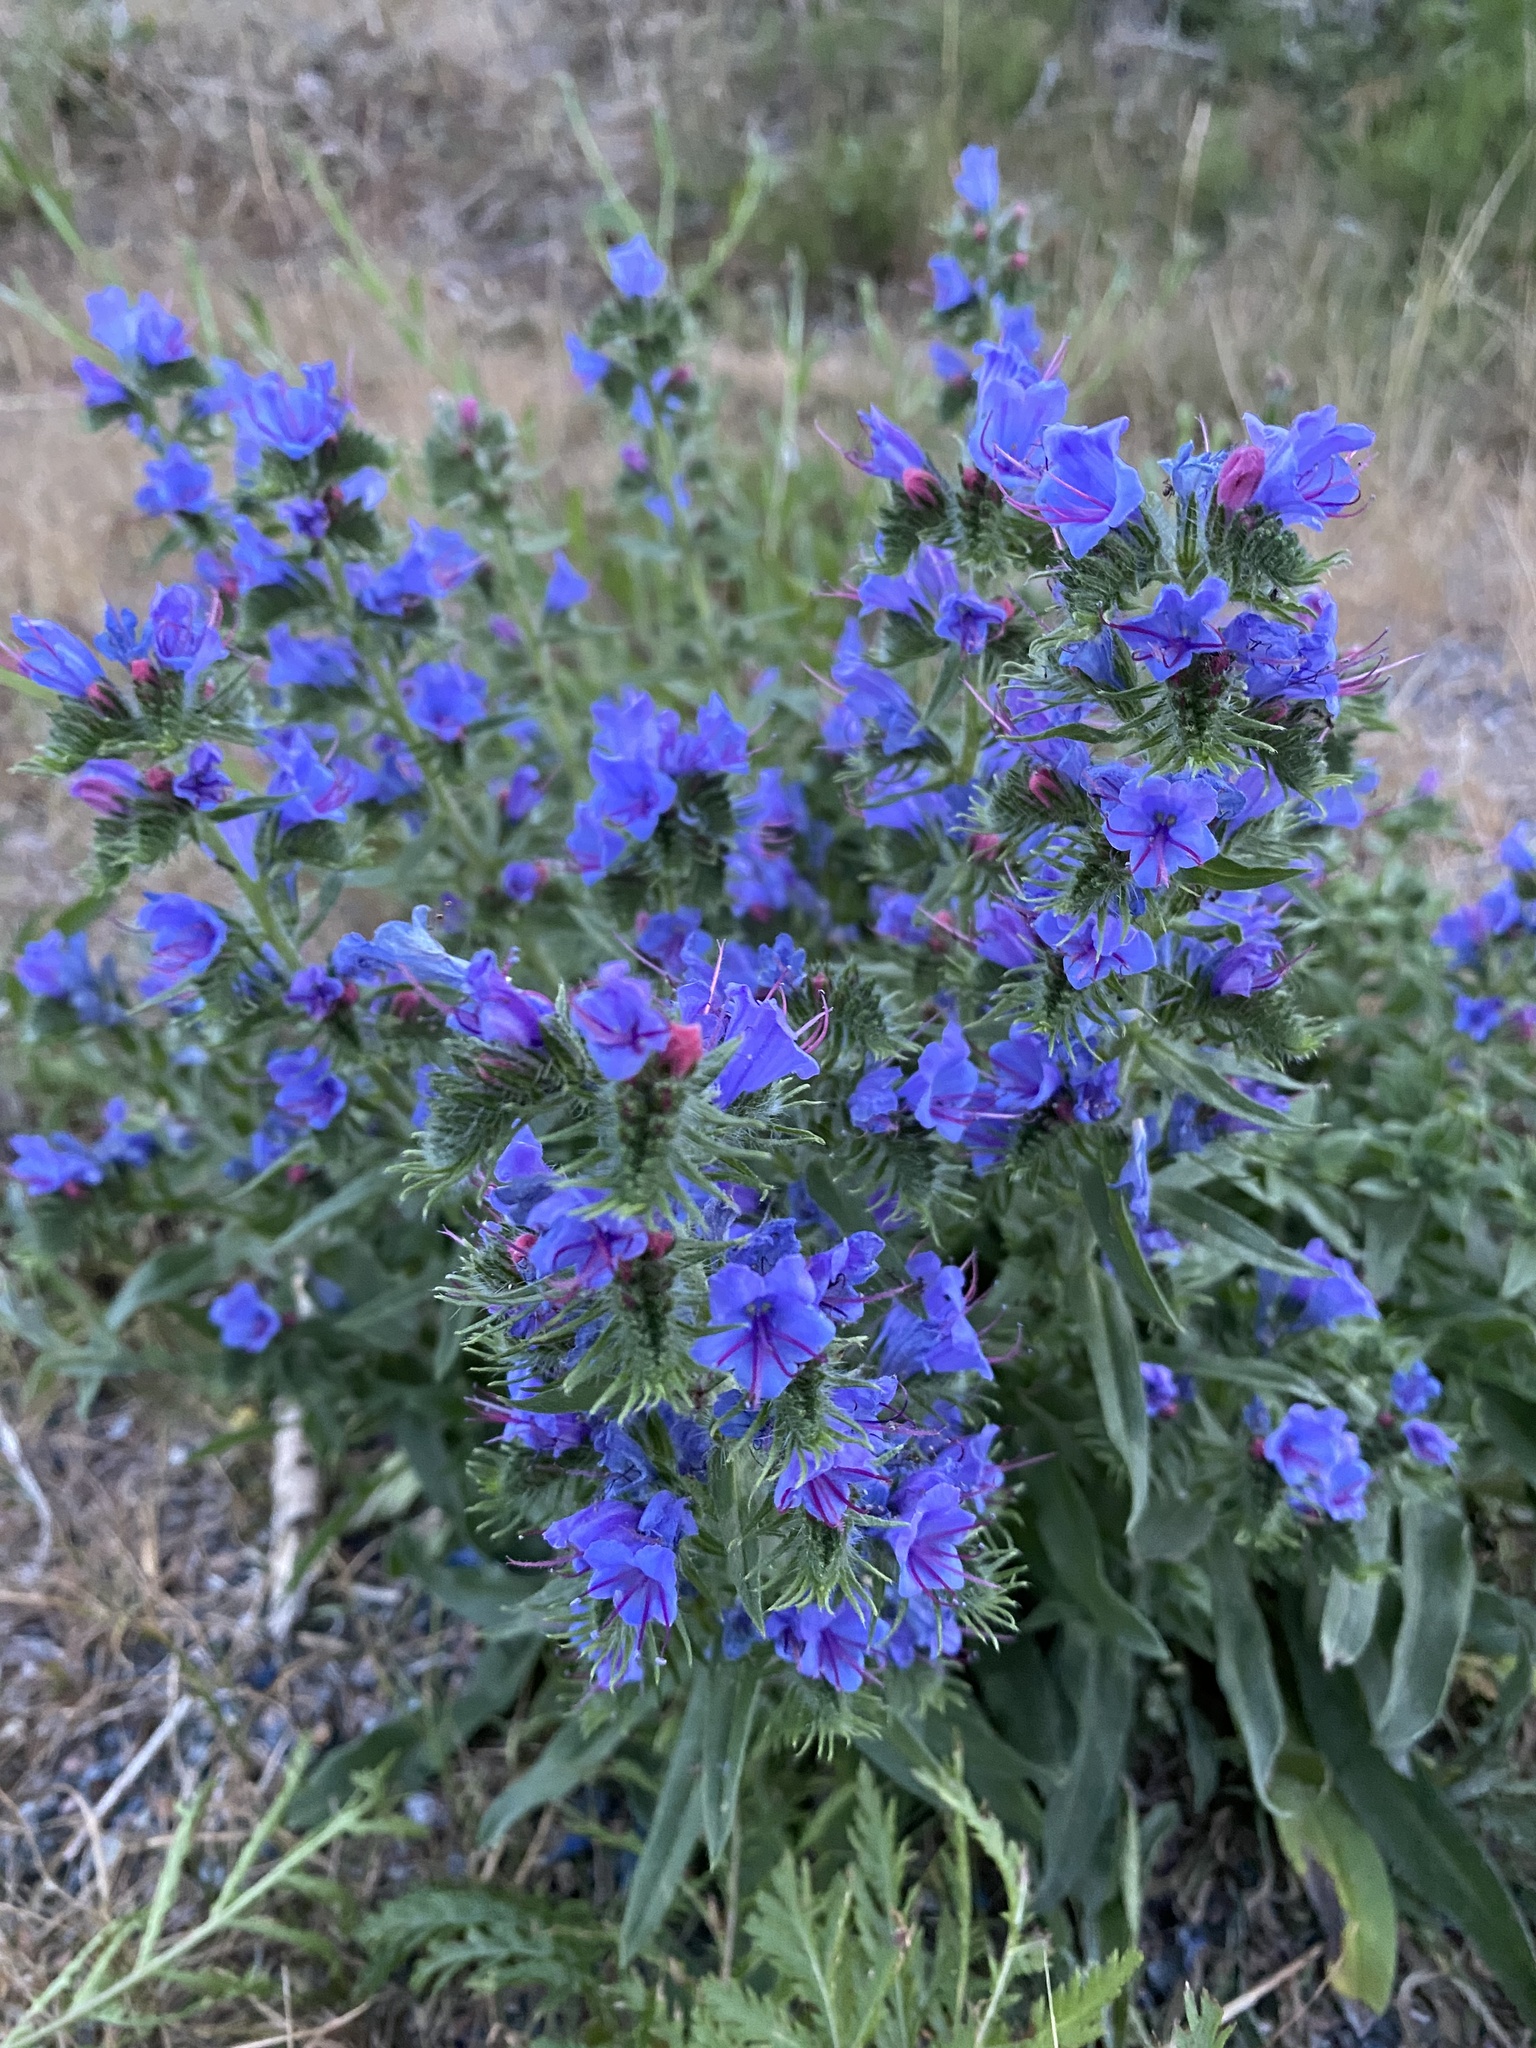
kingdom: Plantae
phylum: Tracheophyta
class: Magnoliopsida
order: Boraginales
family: Boraginaceae
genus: Echium
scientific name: Echium vulgare
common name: Common viper's bugloss
